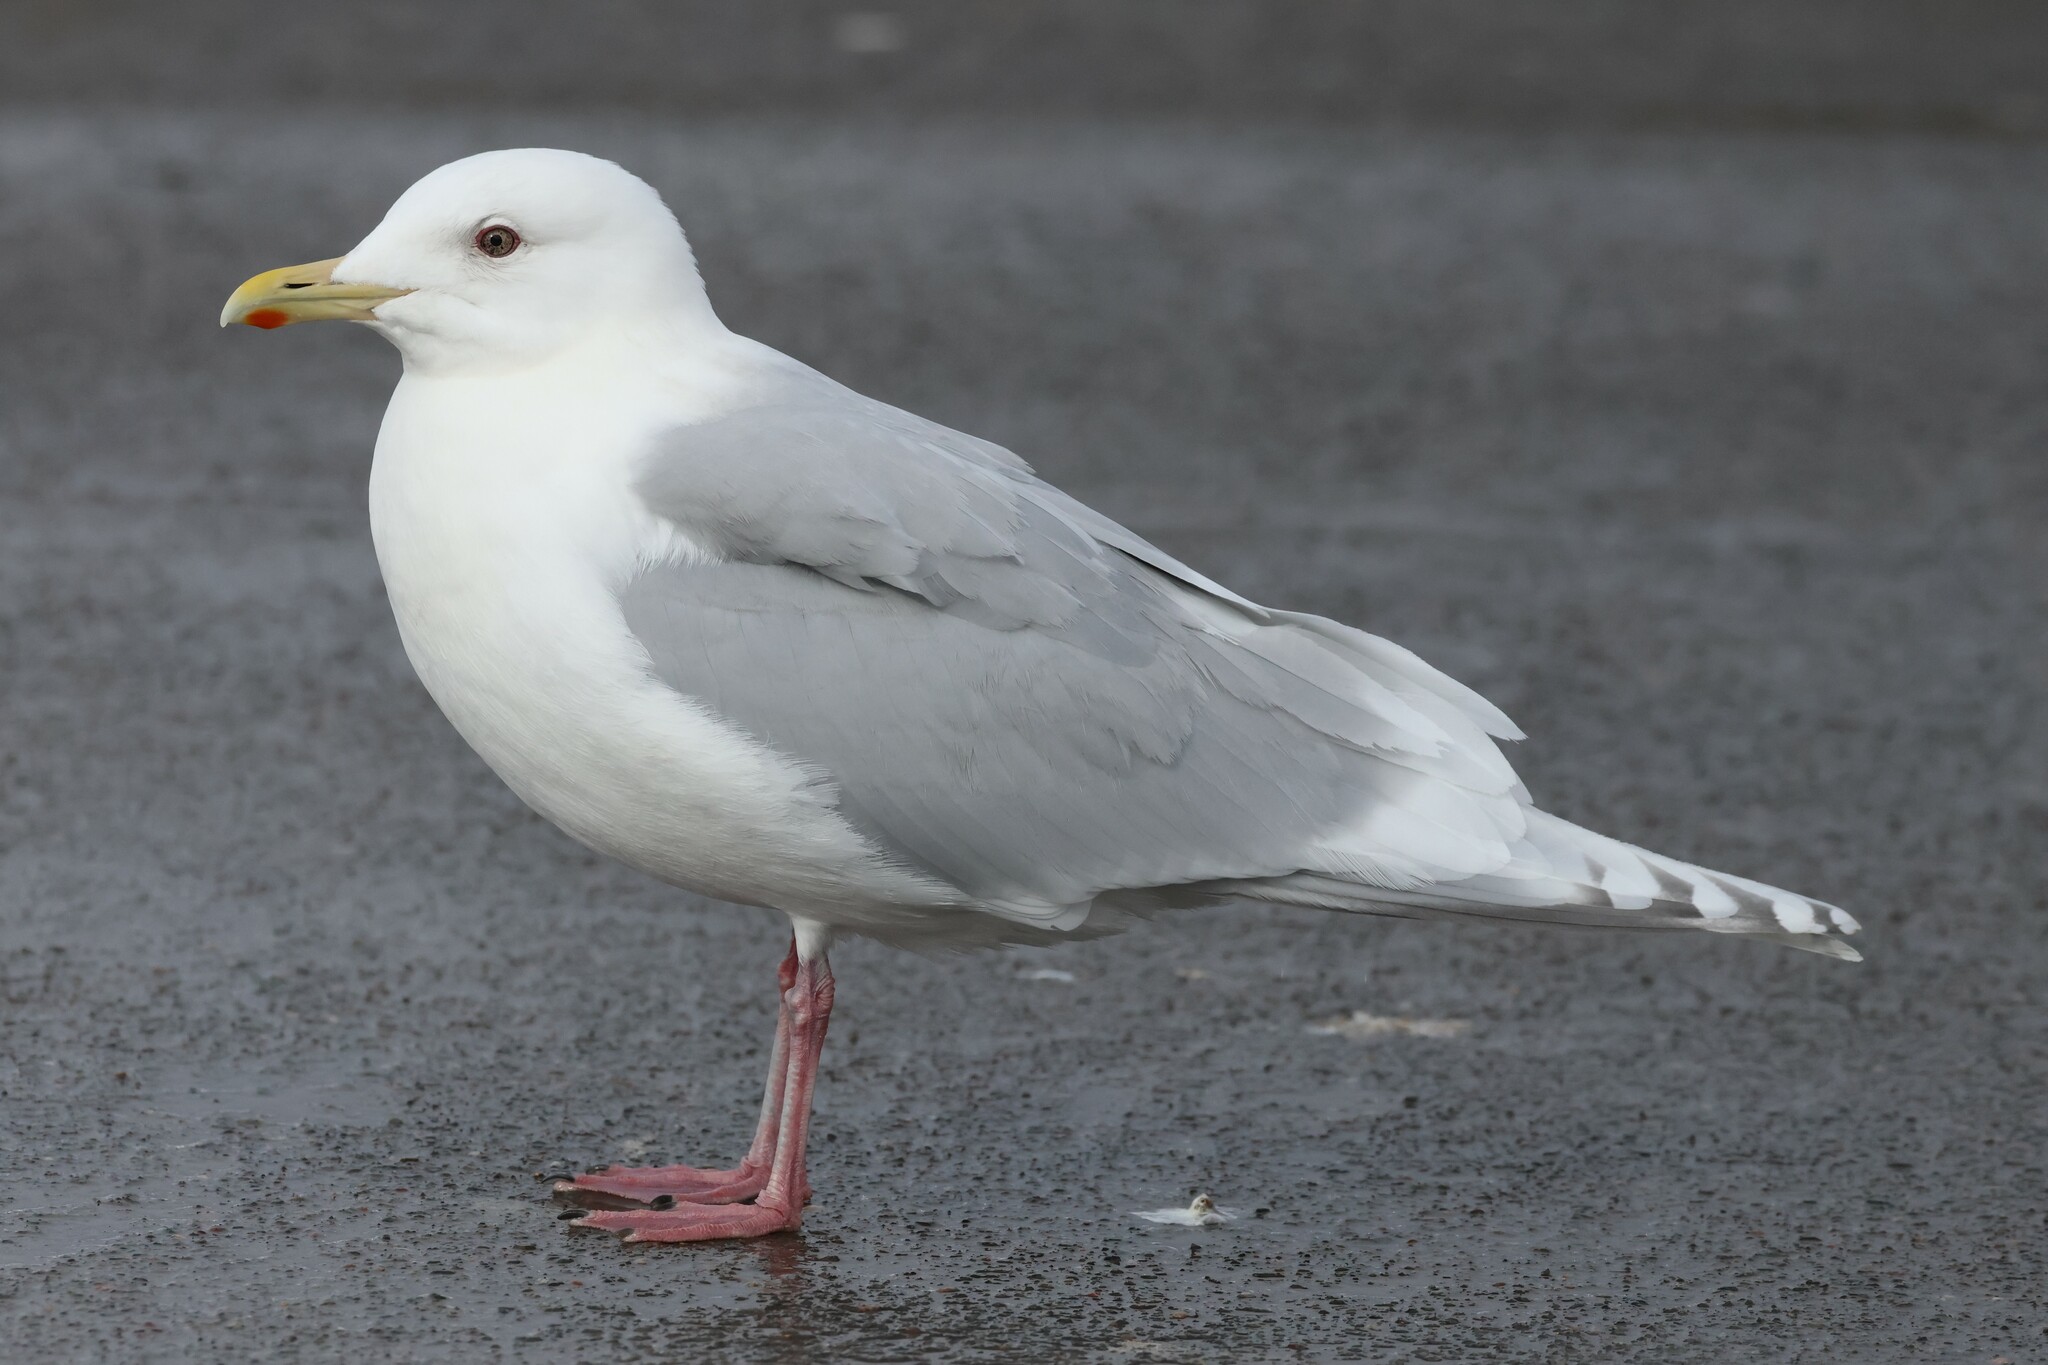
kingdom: Animalia
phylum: Chordata
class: Aves
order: Charadriiformes
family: Laridae
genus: Larus
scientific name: Larus glaucoides
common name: Iceland gull
